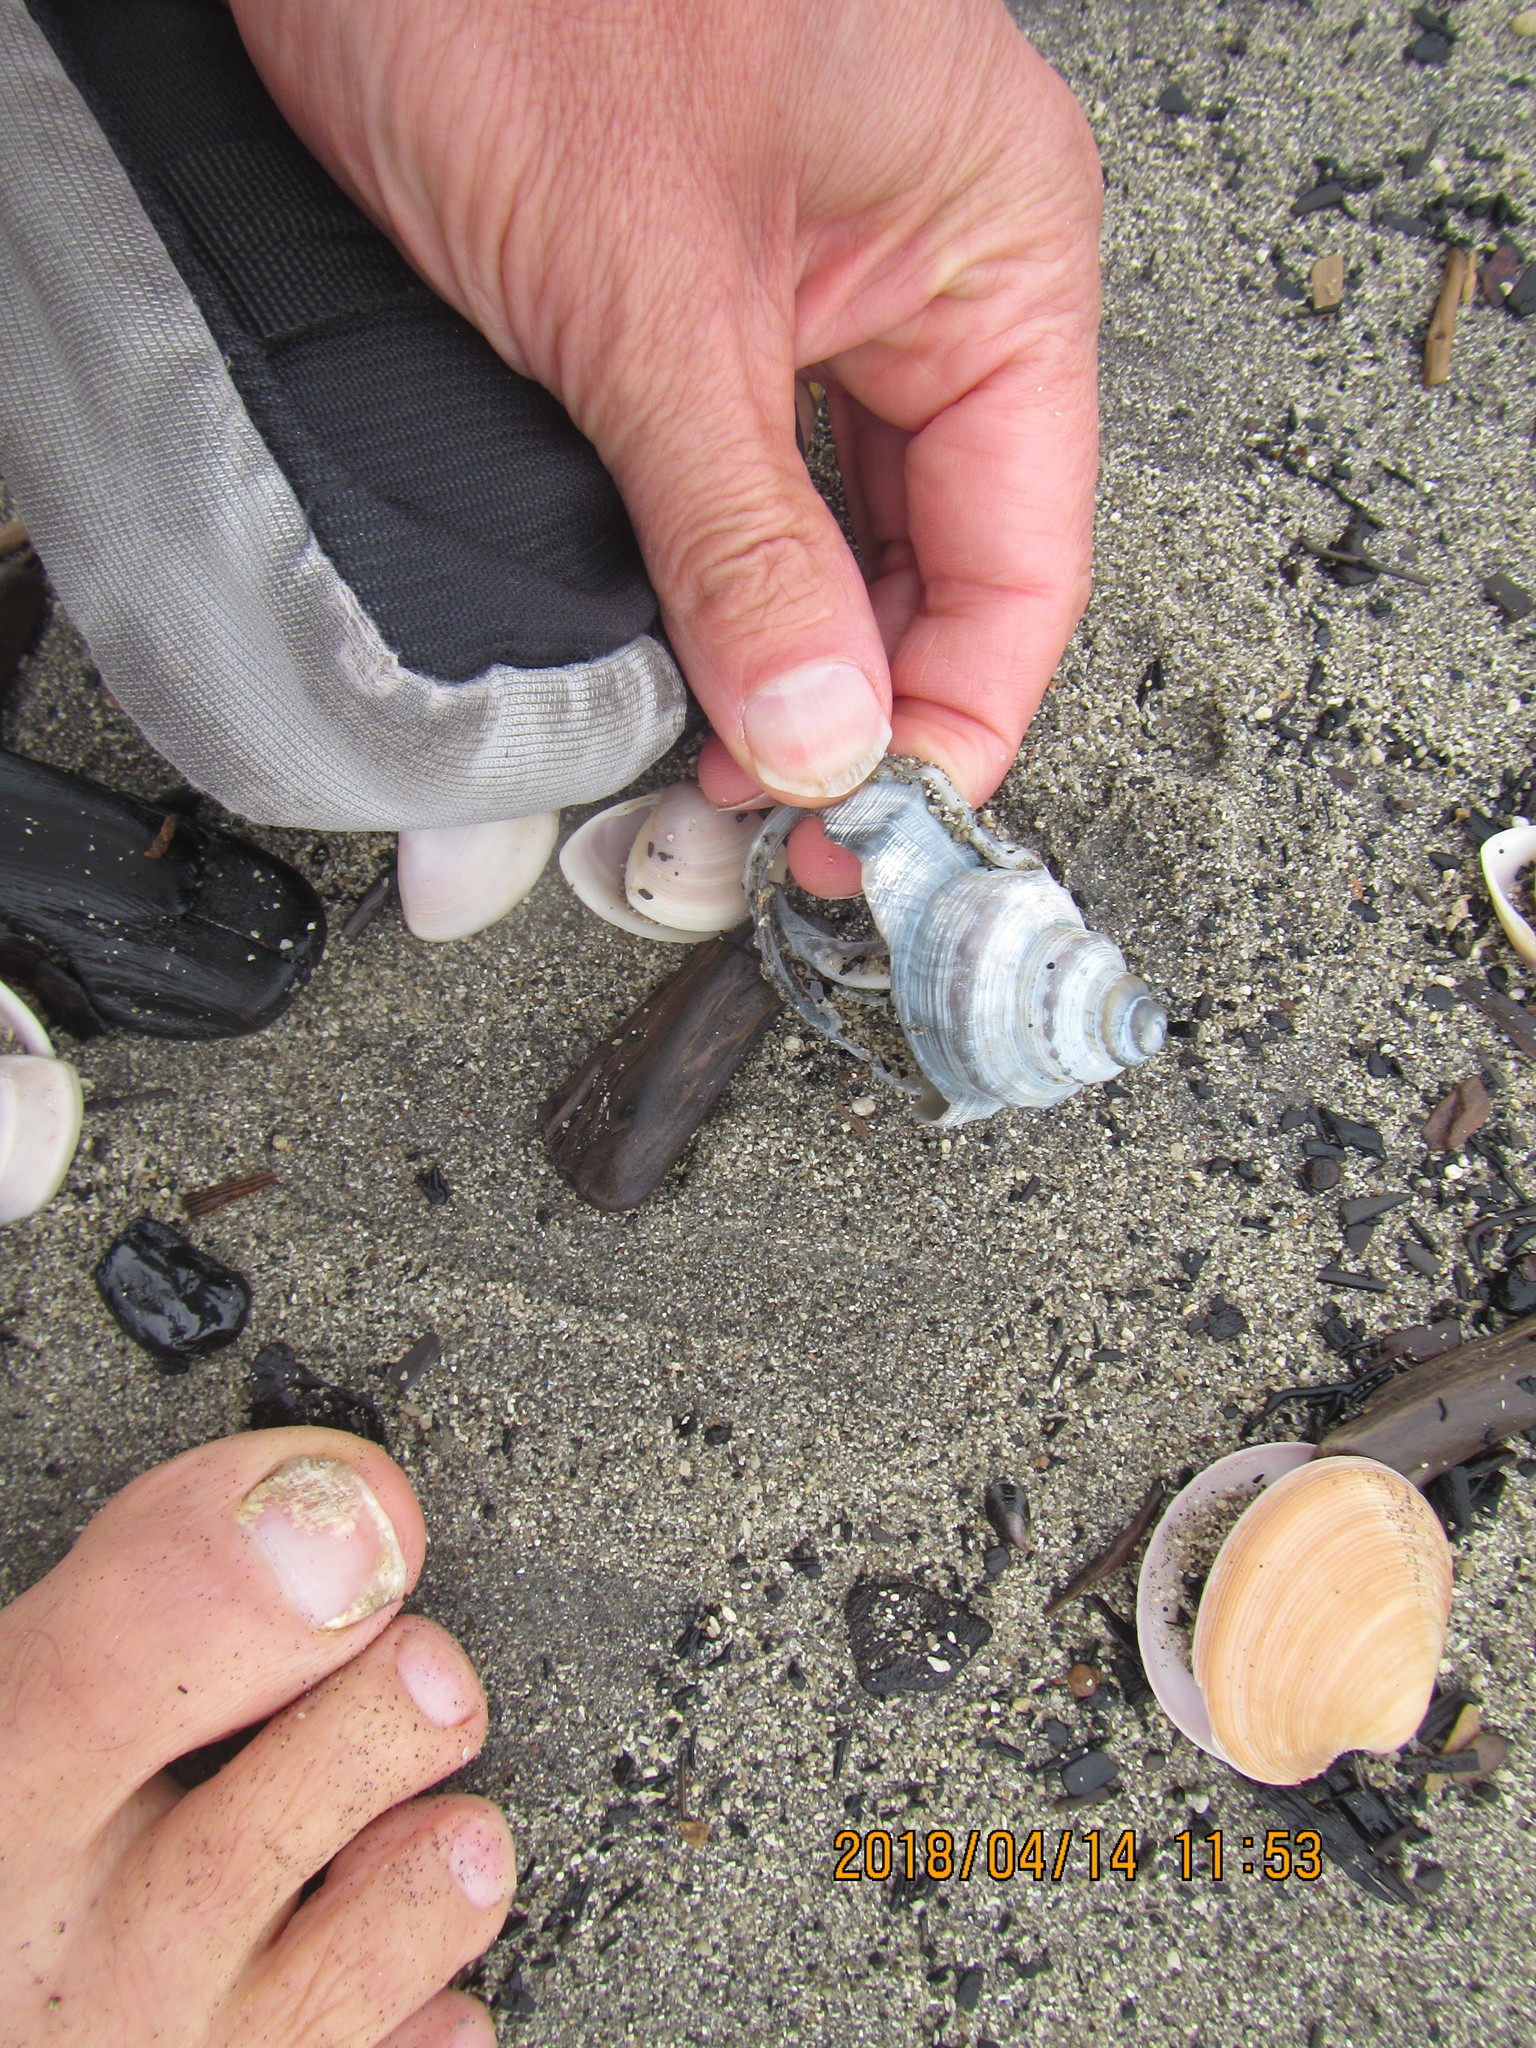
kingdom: Animalia
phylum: Mollusca
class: Gastropoda
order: Littorinimorpha
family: Struthiolariidae
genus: Struthiolaria
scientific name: Struthiolaria papulosa
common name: Large ostrich foot
